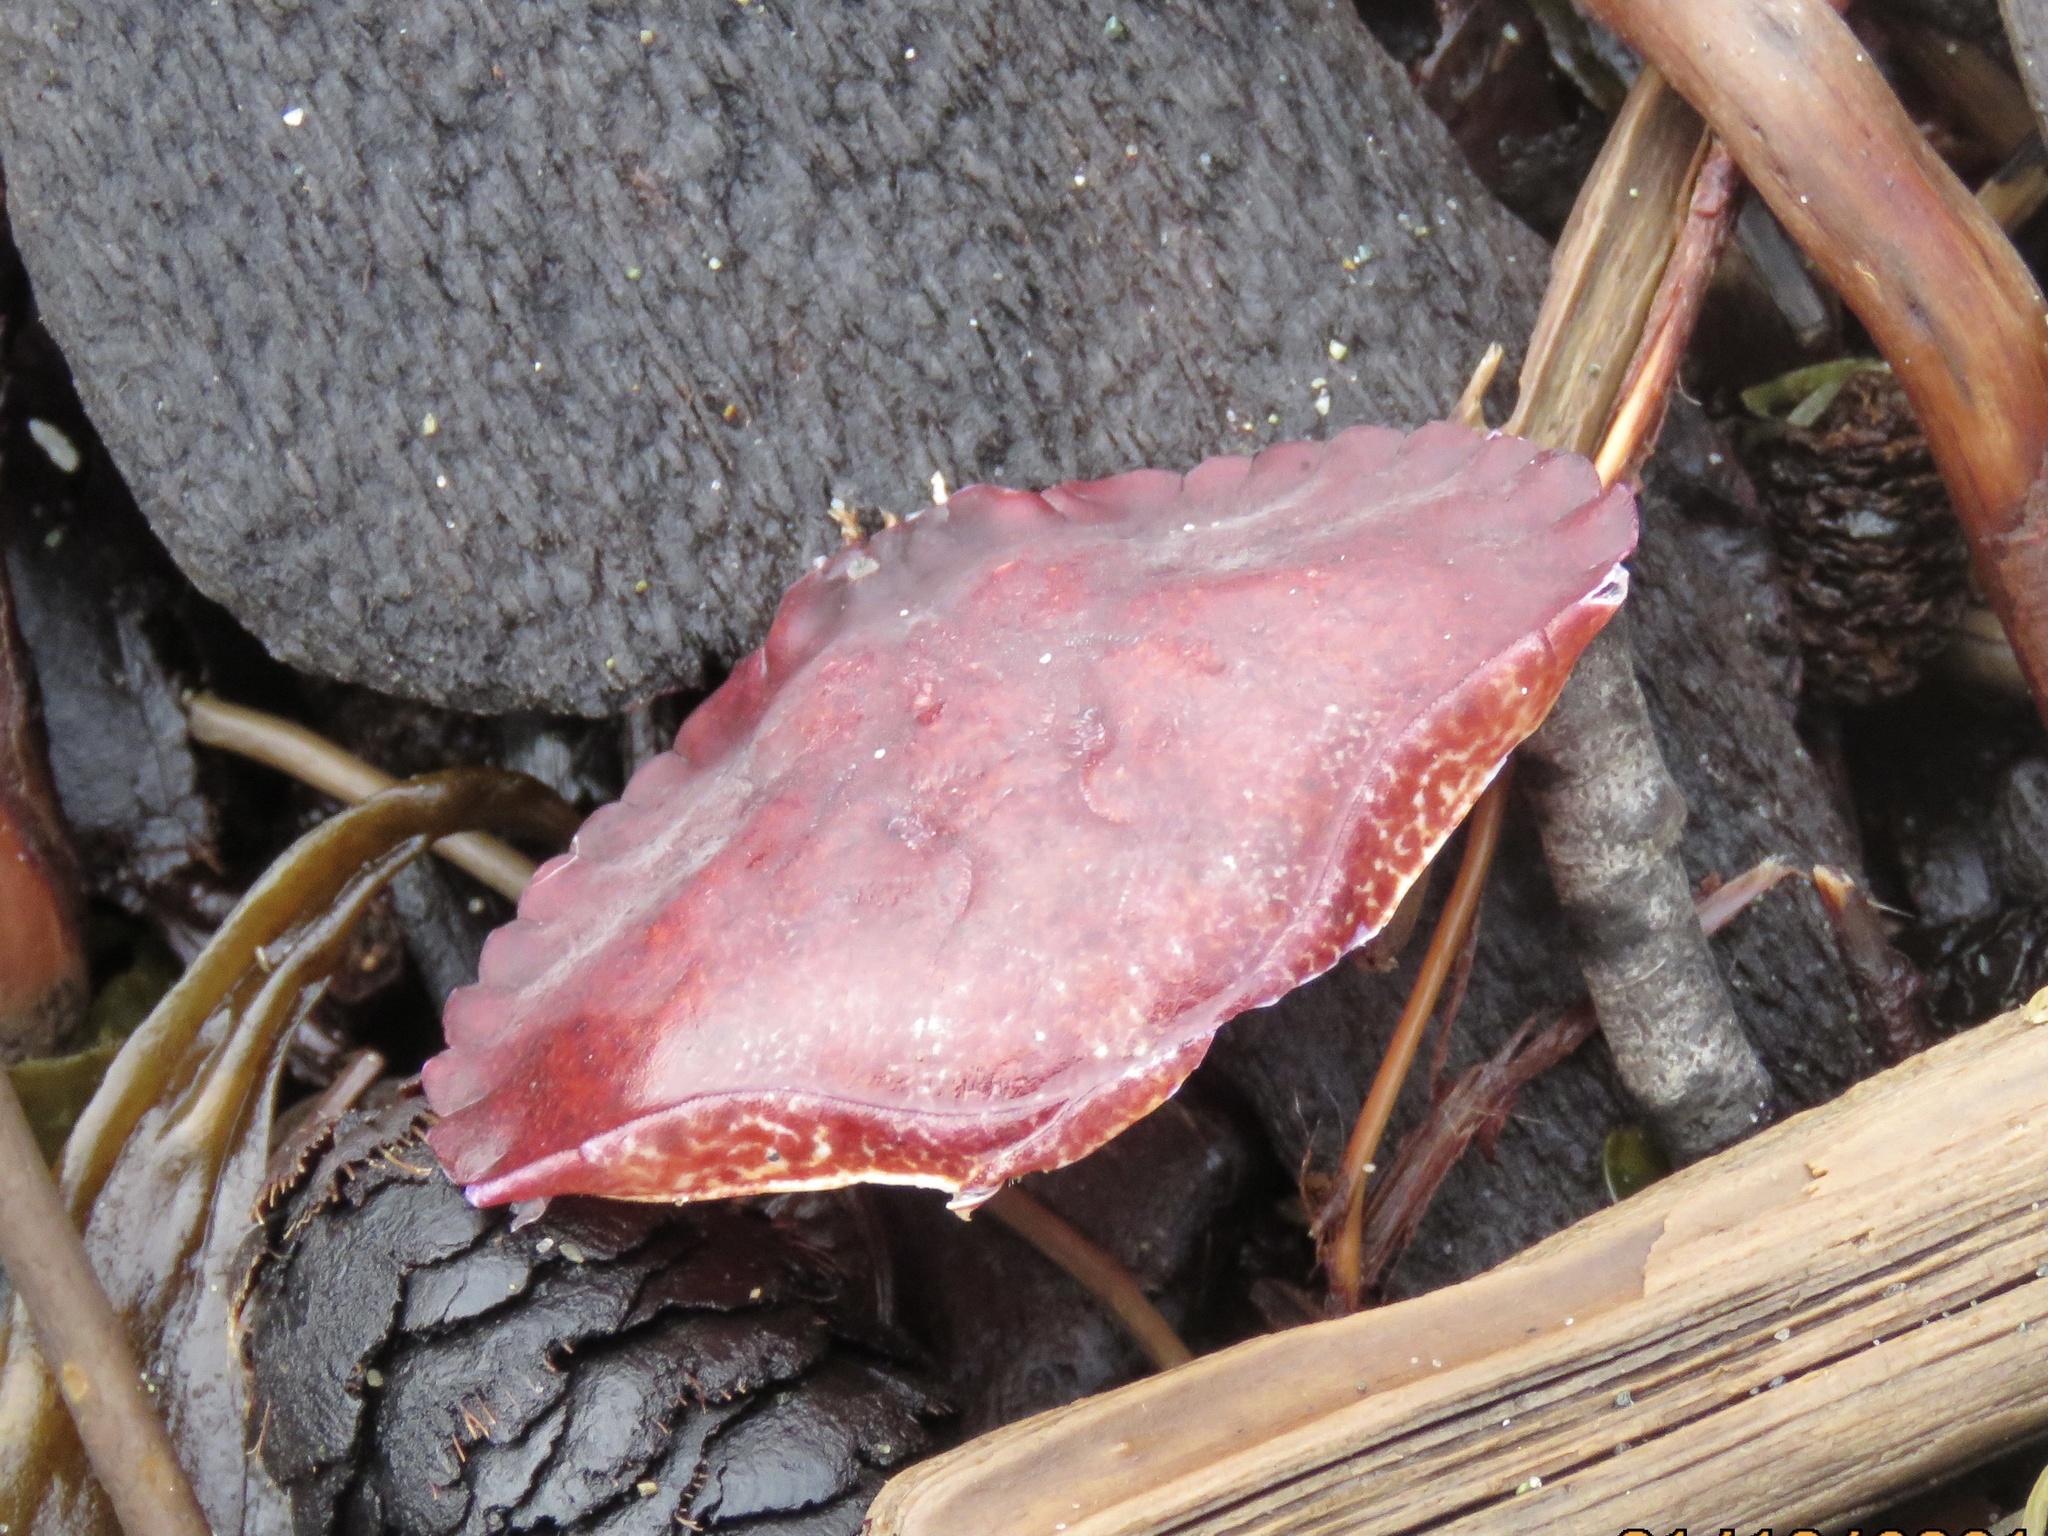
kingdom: Animalia
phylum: Arthropoda
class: Malacostraca
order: Decapoda
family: Cancridae
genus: Cancer
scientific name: Cancer productus
